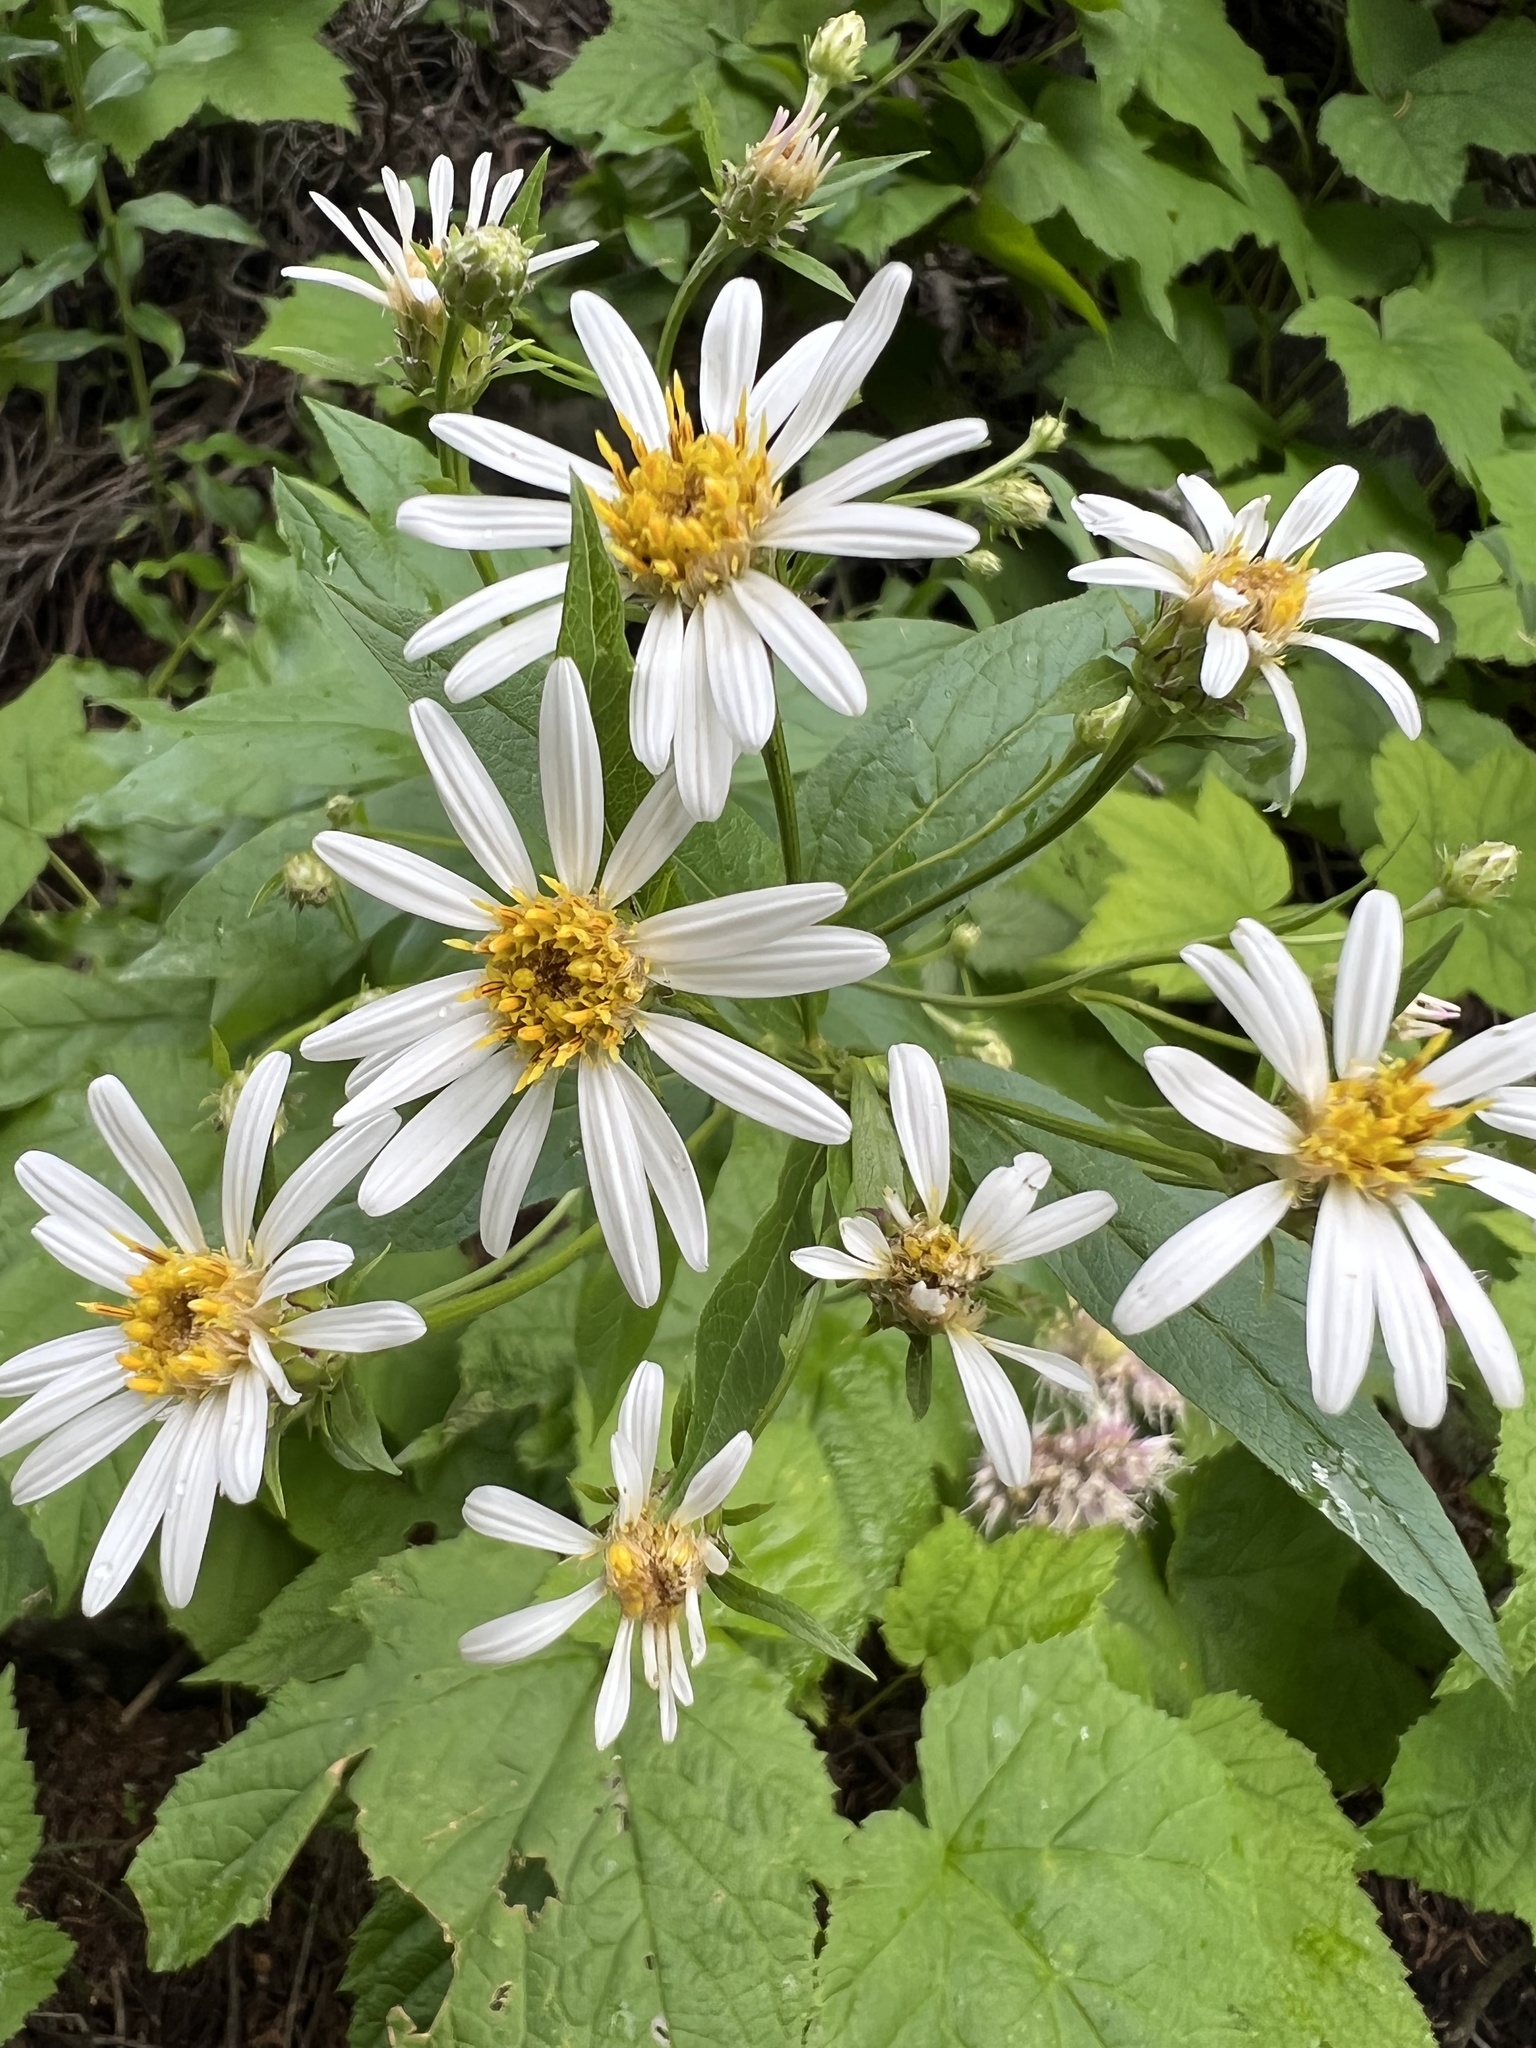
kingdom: Plantae
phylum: Tracheophyta
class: Magnoliopsida
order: Asterales
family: Asteraceae
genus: Eucephalus
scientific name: Eucephalus engelmannii
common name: Engelmann's aster
